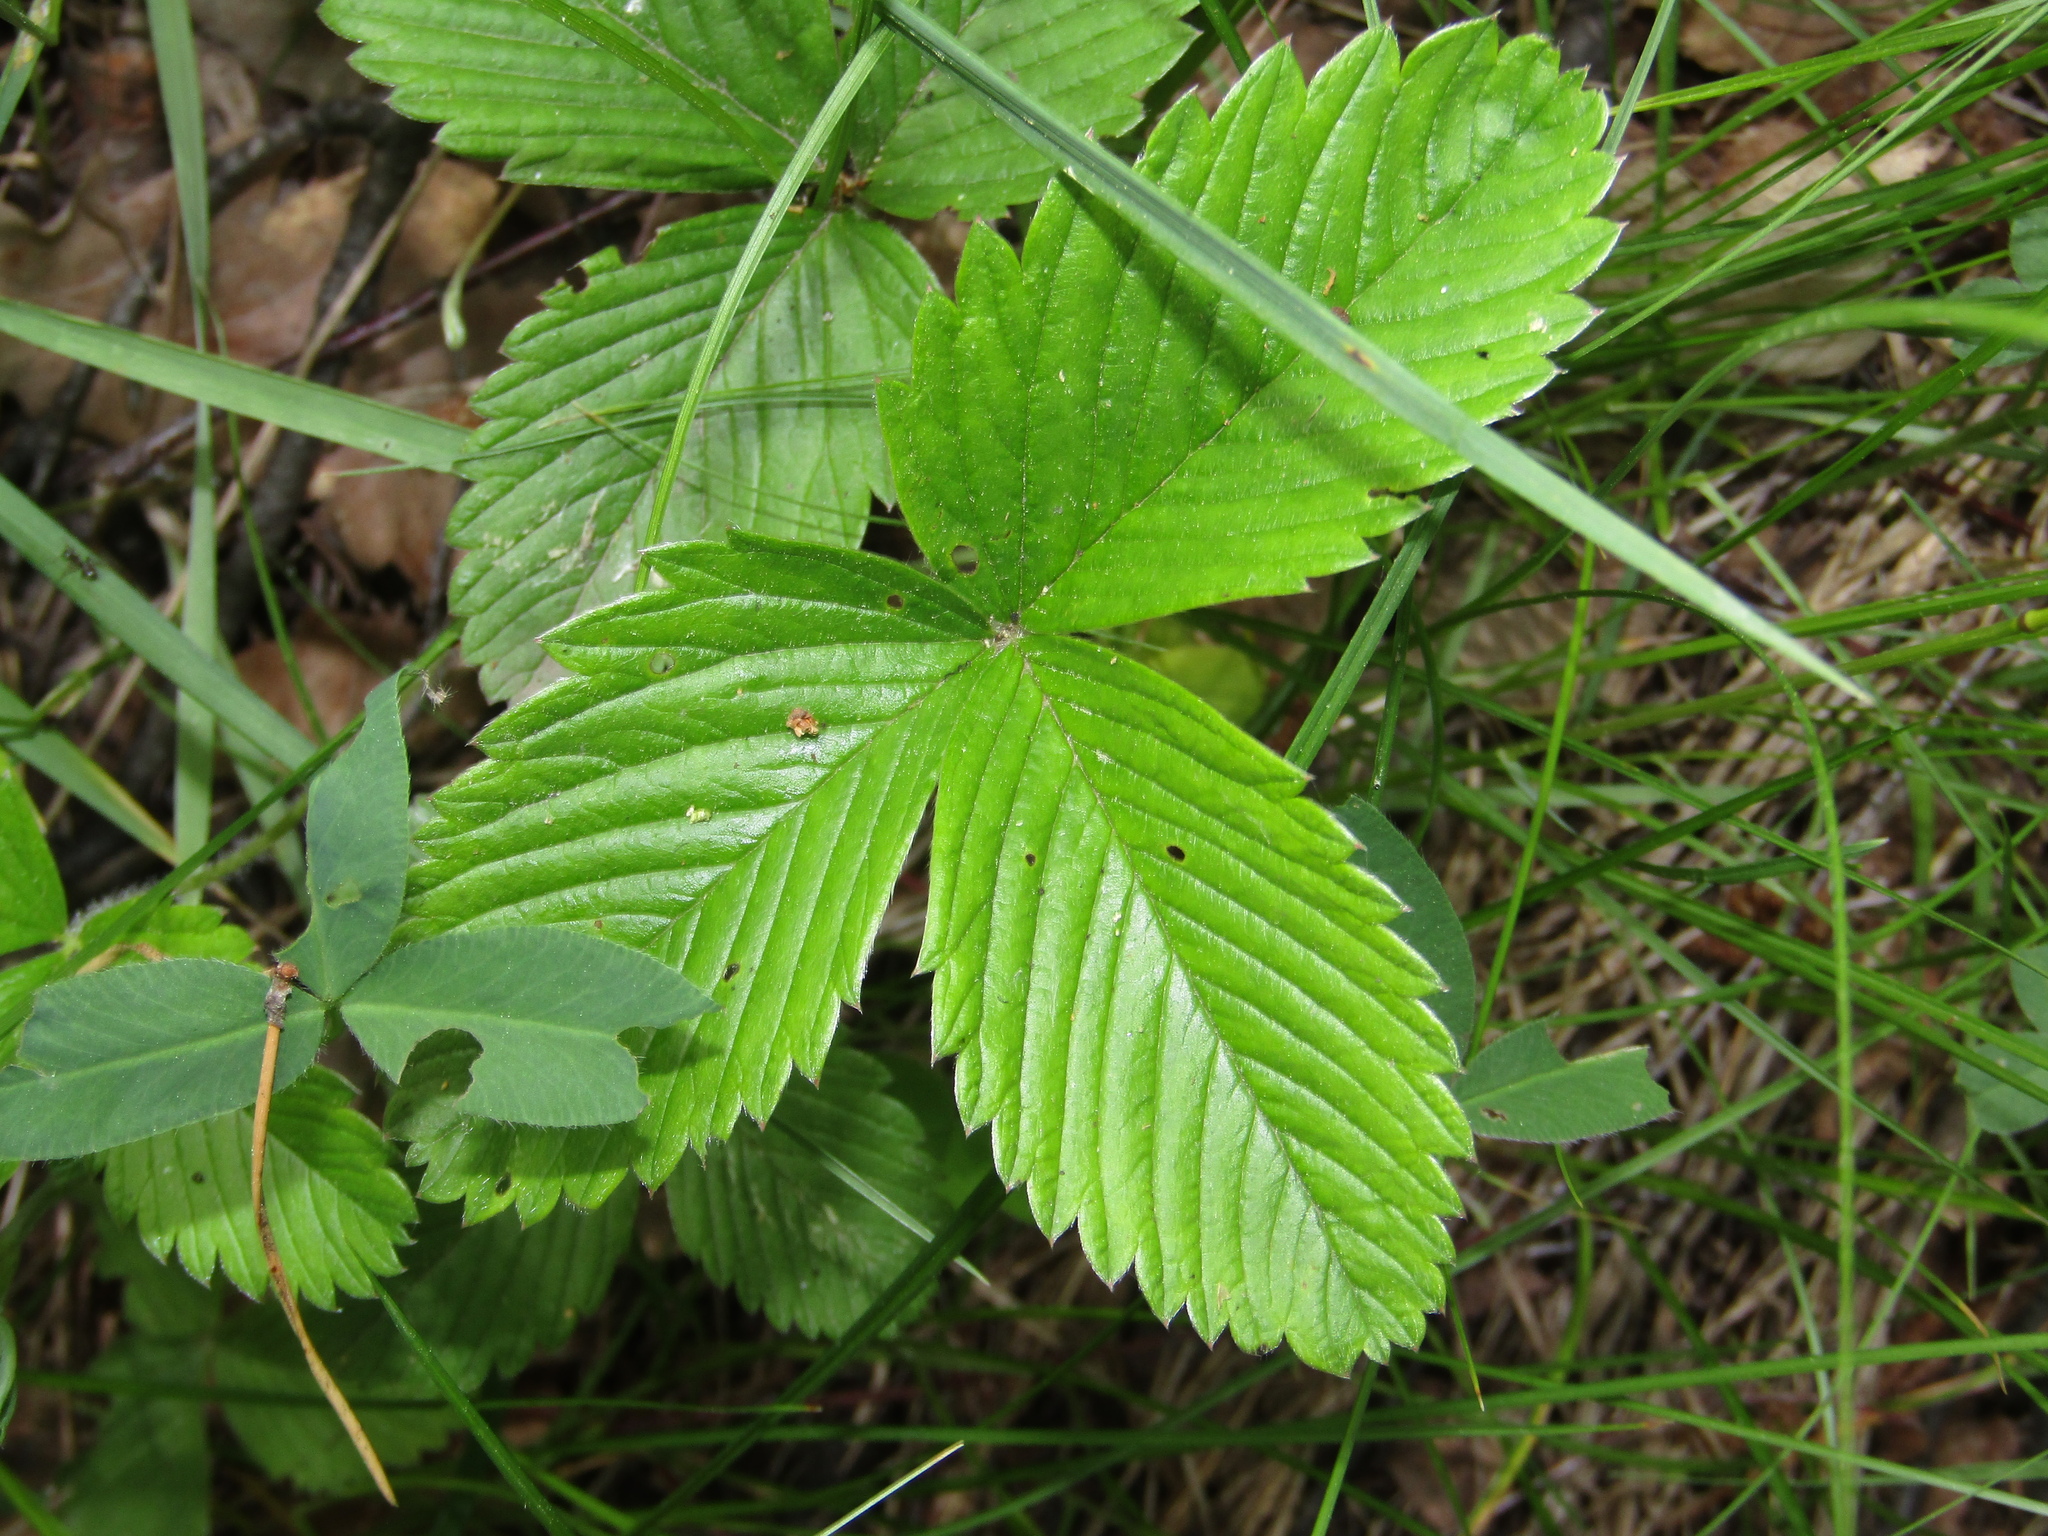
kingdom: Plantae
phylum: Tracheophyta
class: Magnoliopsida
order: Rosales
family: Rosaceae
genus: Fragaria
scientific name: Fragaria viridis
